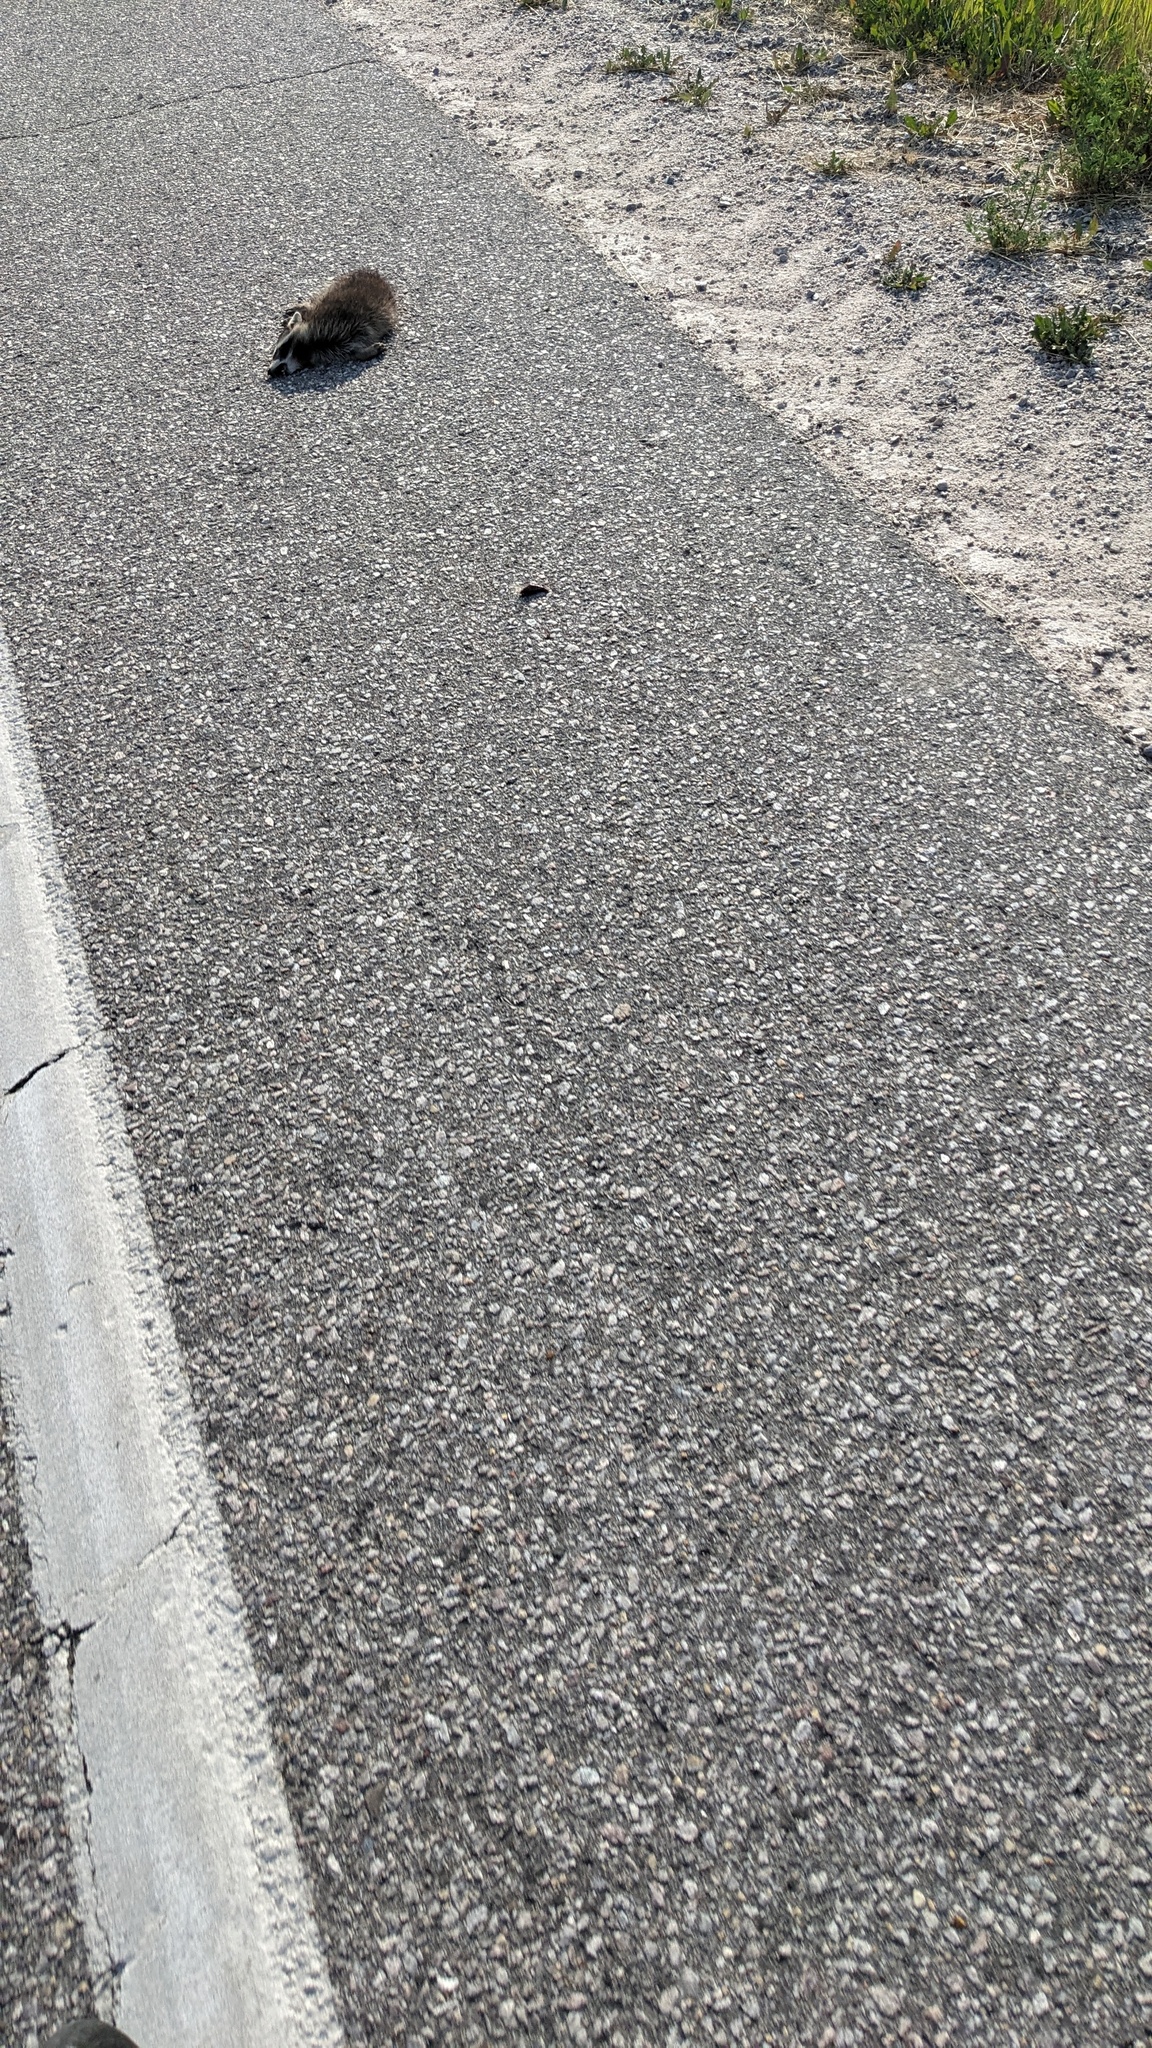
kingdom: Animalia
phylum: Chordata
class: Mammalia
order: Carnivora
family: Procyonidae
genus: Procyon
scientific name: Procyon lotor
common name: Raccoon
